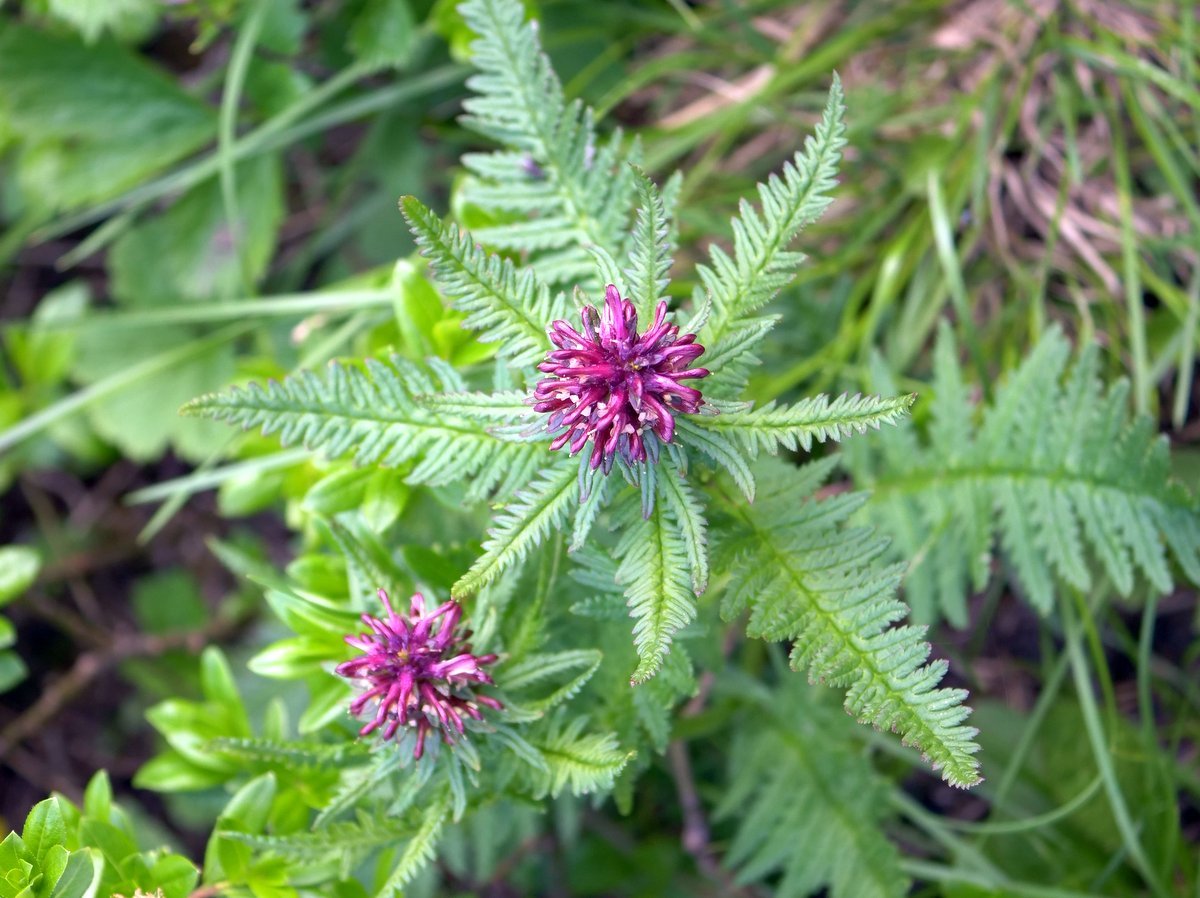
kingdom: Plantae
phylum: Tracheophyta
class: Magnoliopsida
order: Lamiales
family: Orobanchaceae
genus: Pedicularis
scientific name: Pedicularis recutita
